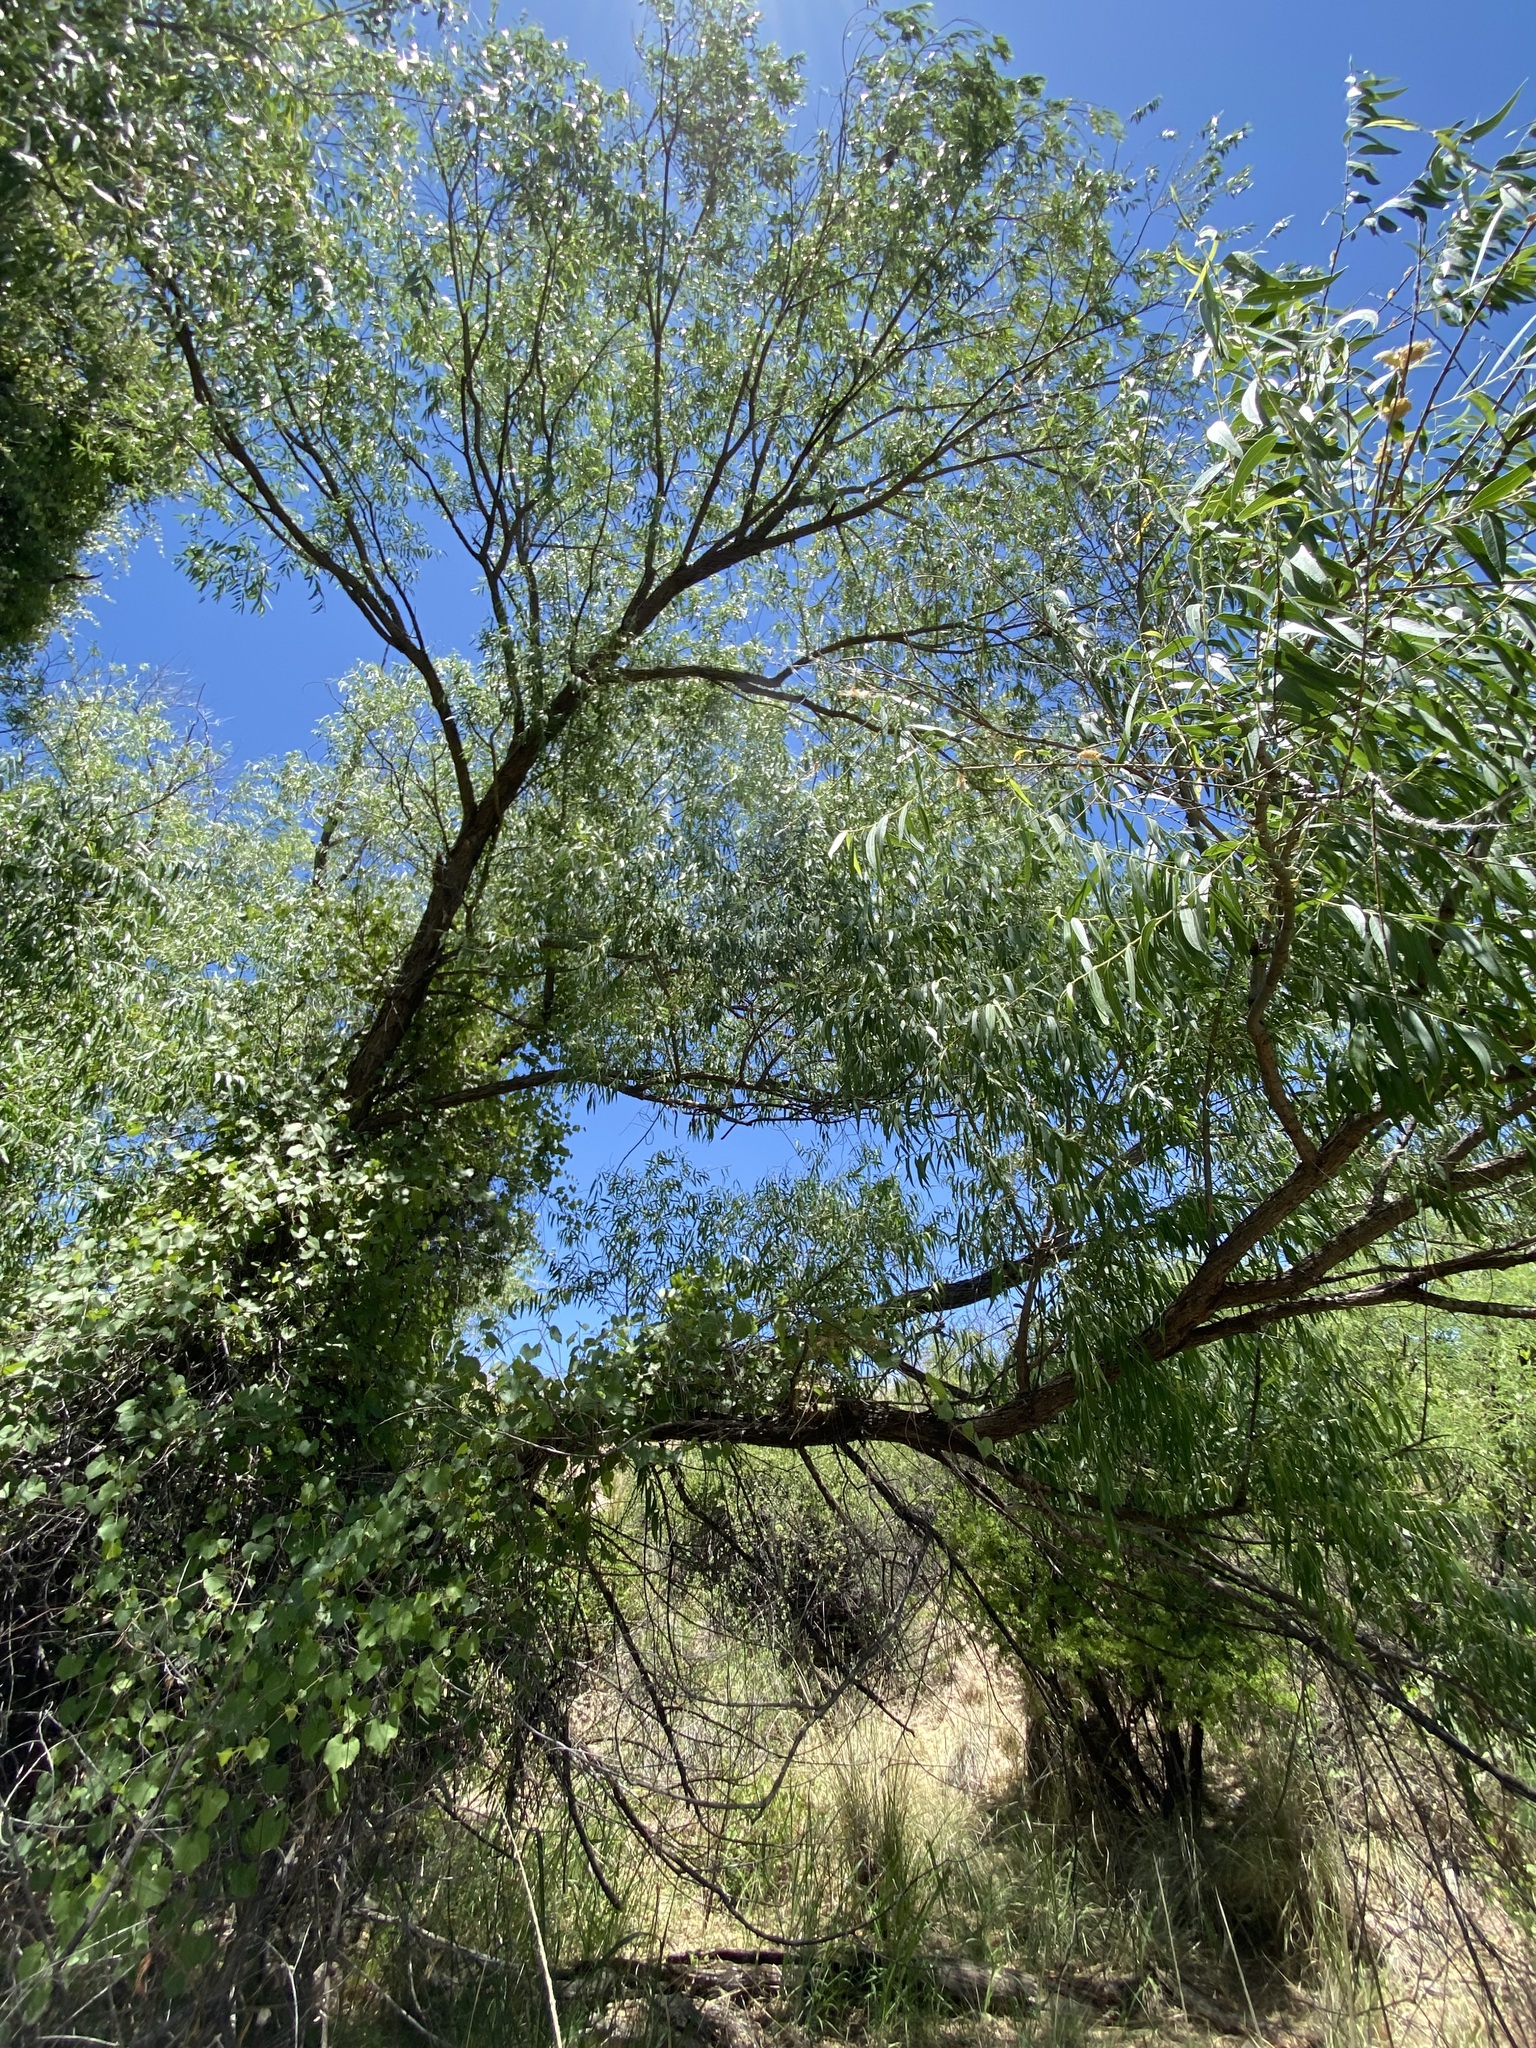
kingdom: Plantae
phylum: Tracheophyta
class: Magnoliopsida
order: Malpighiales
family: Salicaceae
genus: Salix
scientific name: Salix gooddingii
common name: Goodding's willow
